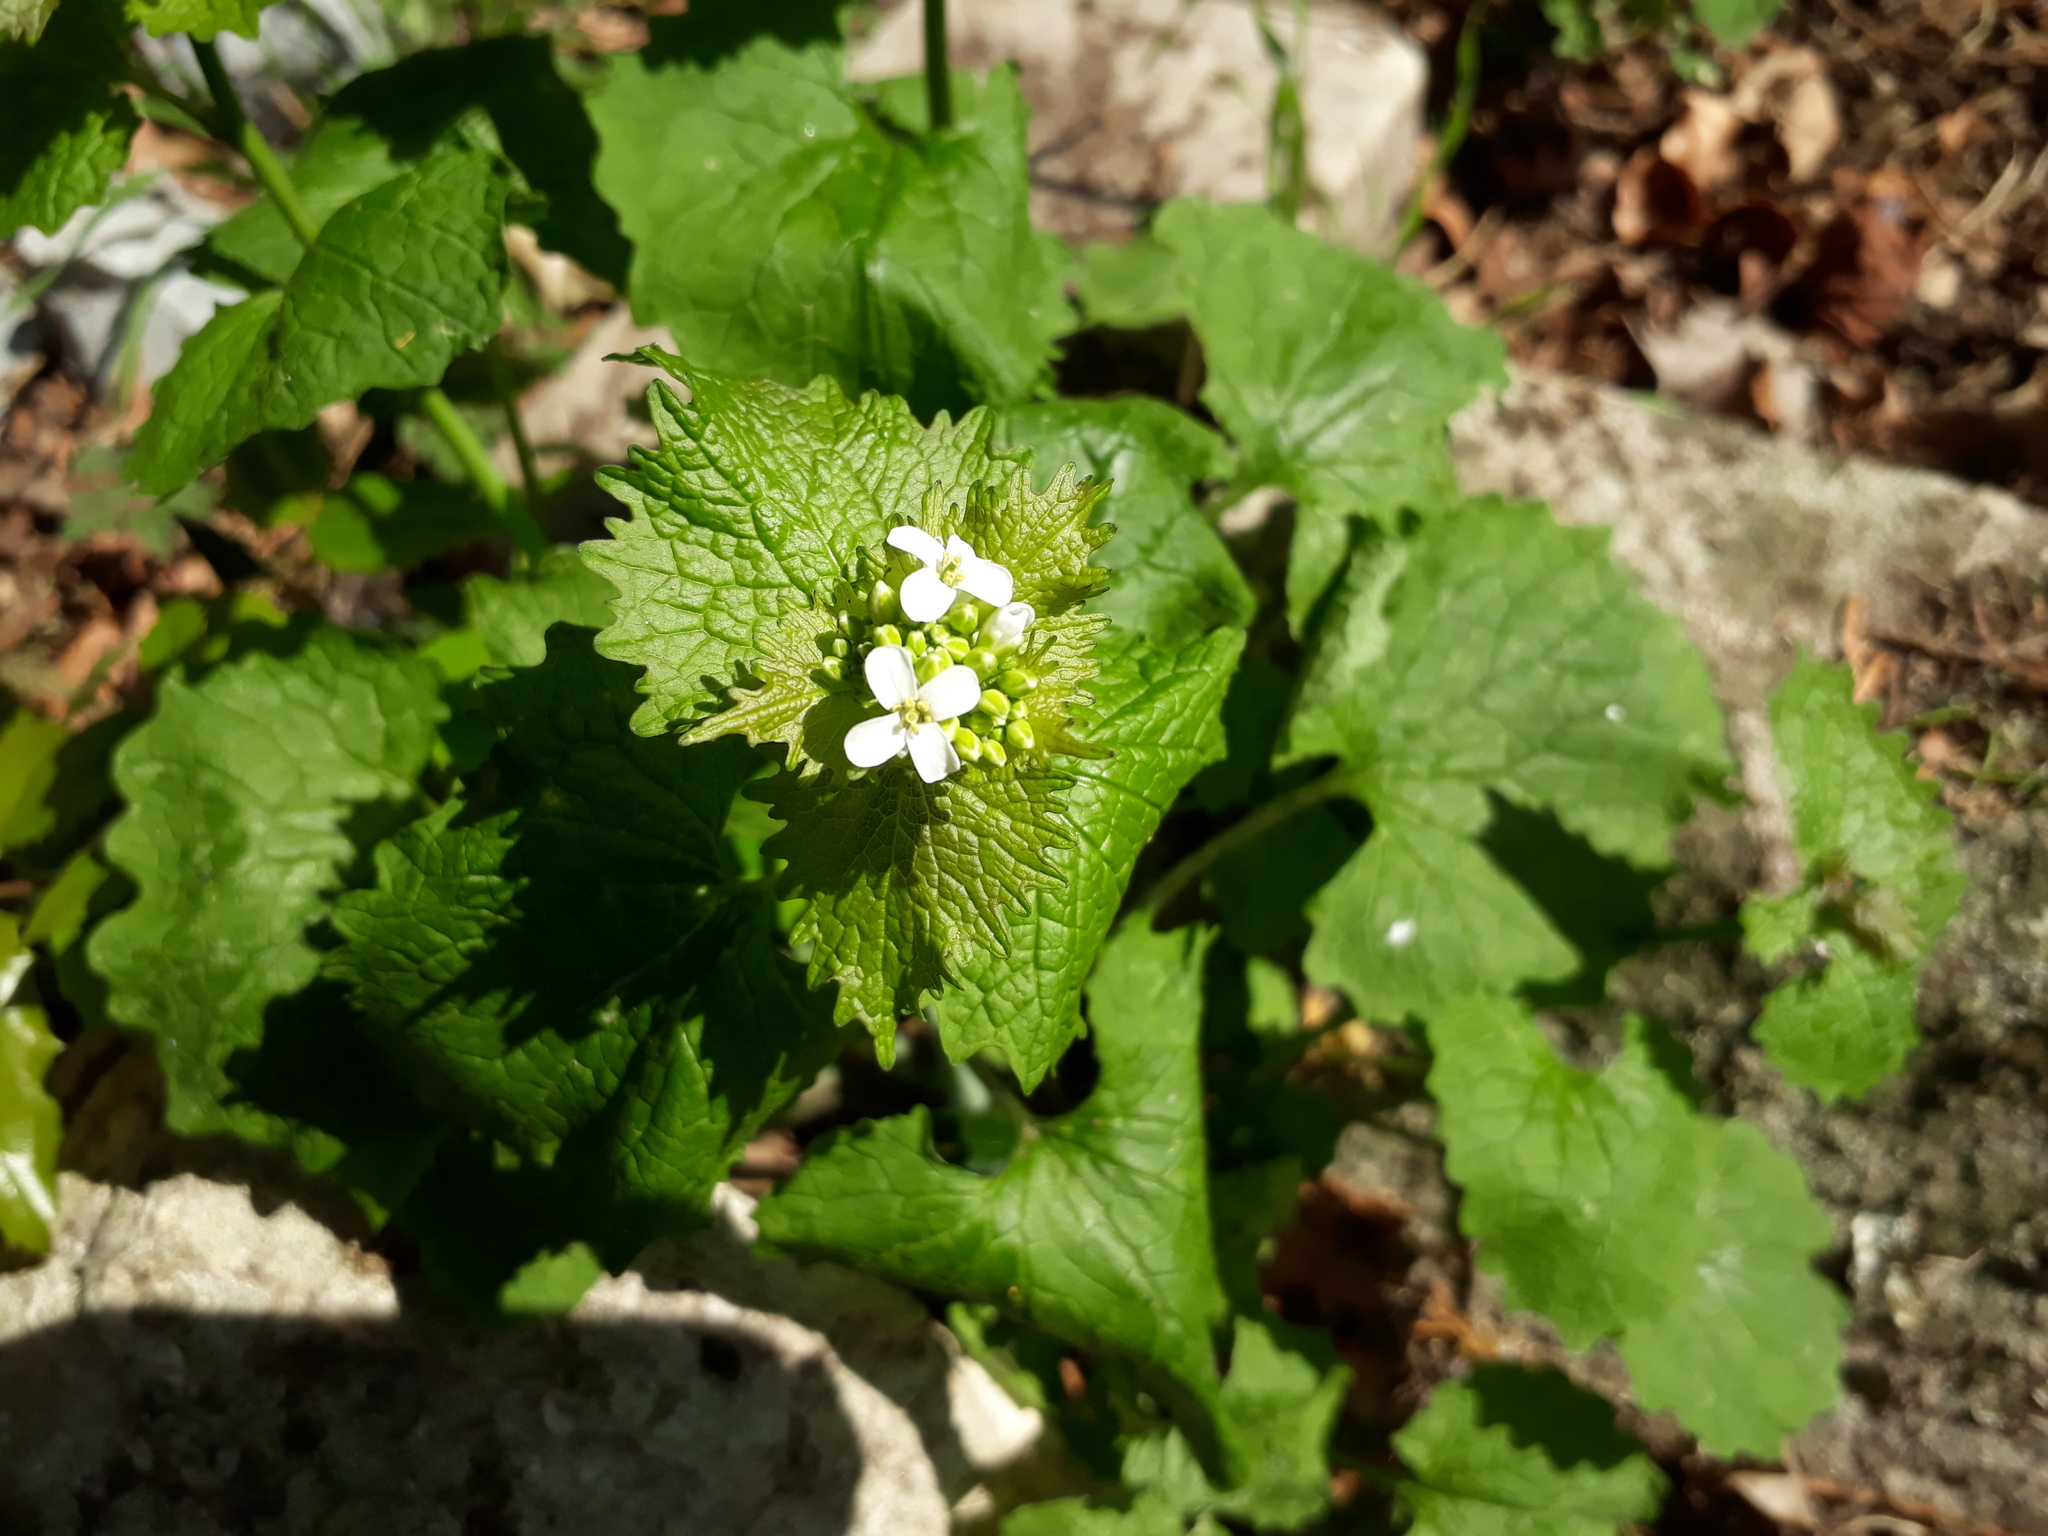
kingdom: Plantae
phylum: Tracheophyta
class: Magnoliopsida
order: Brassicales
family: Brassicaceae
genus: Alliaria
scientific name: Alliaria petiolata
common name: Garlic mustard
